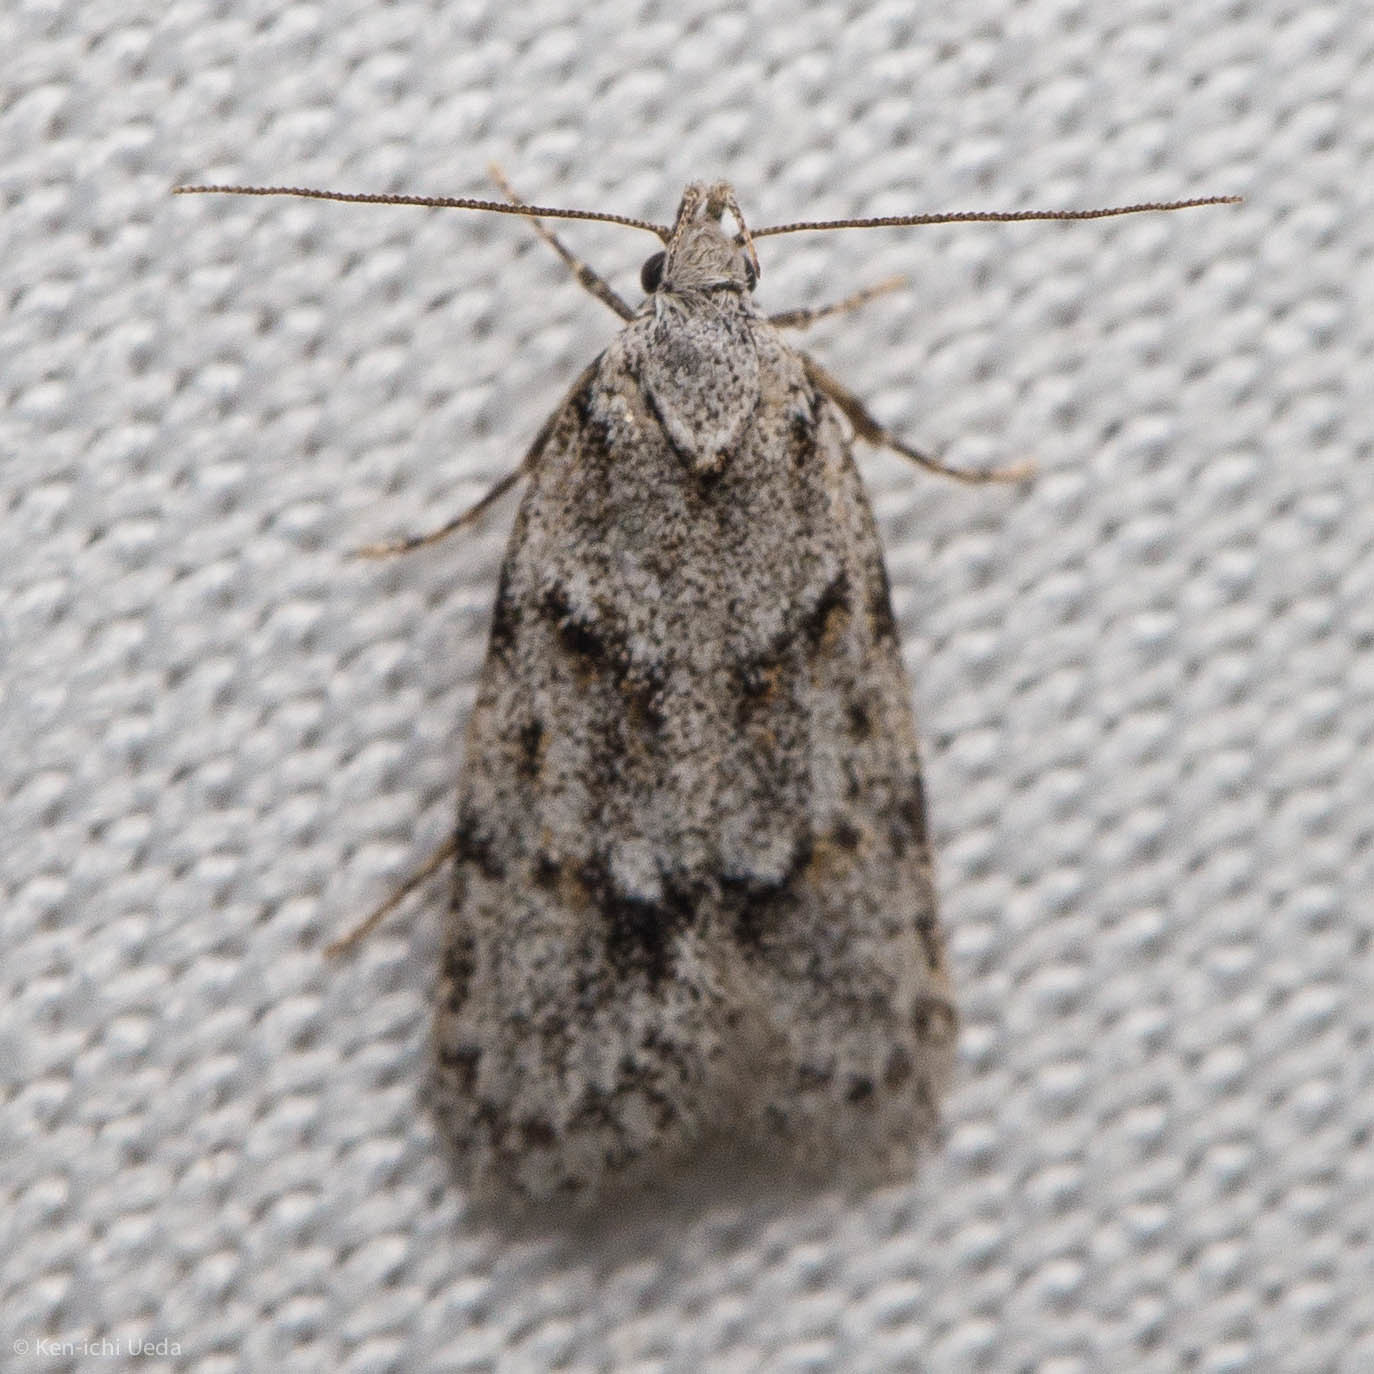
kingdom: Animalia
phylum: Arthropoda
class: Insecta
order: Lepidoptera
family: Autostichidae
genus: Symmoca
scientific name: Symmoca signatella
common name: Dockland obscure
